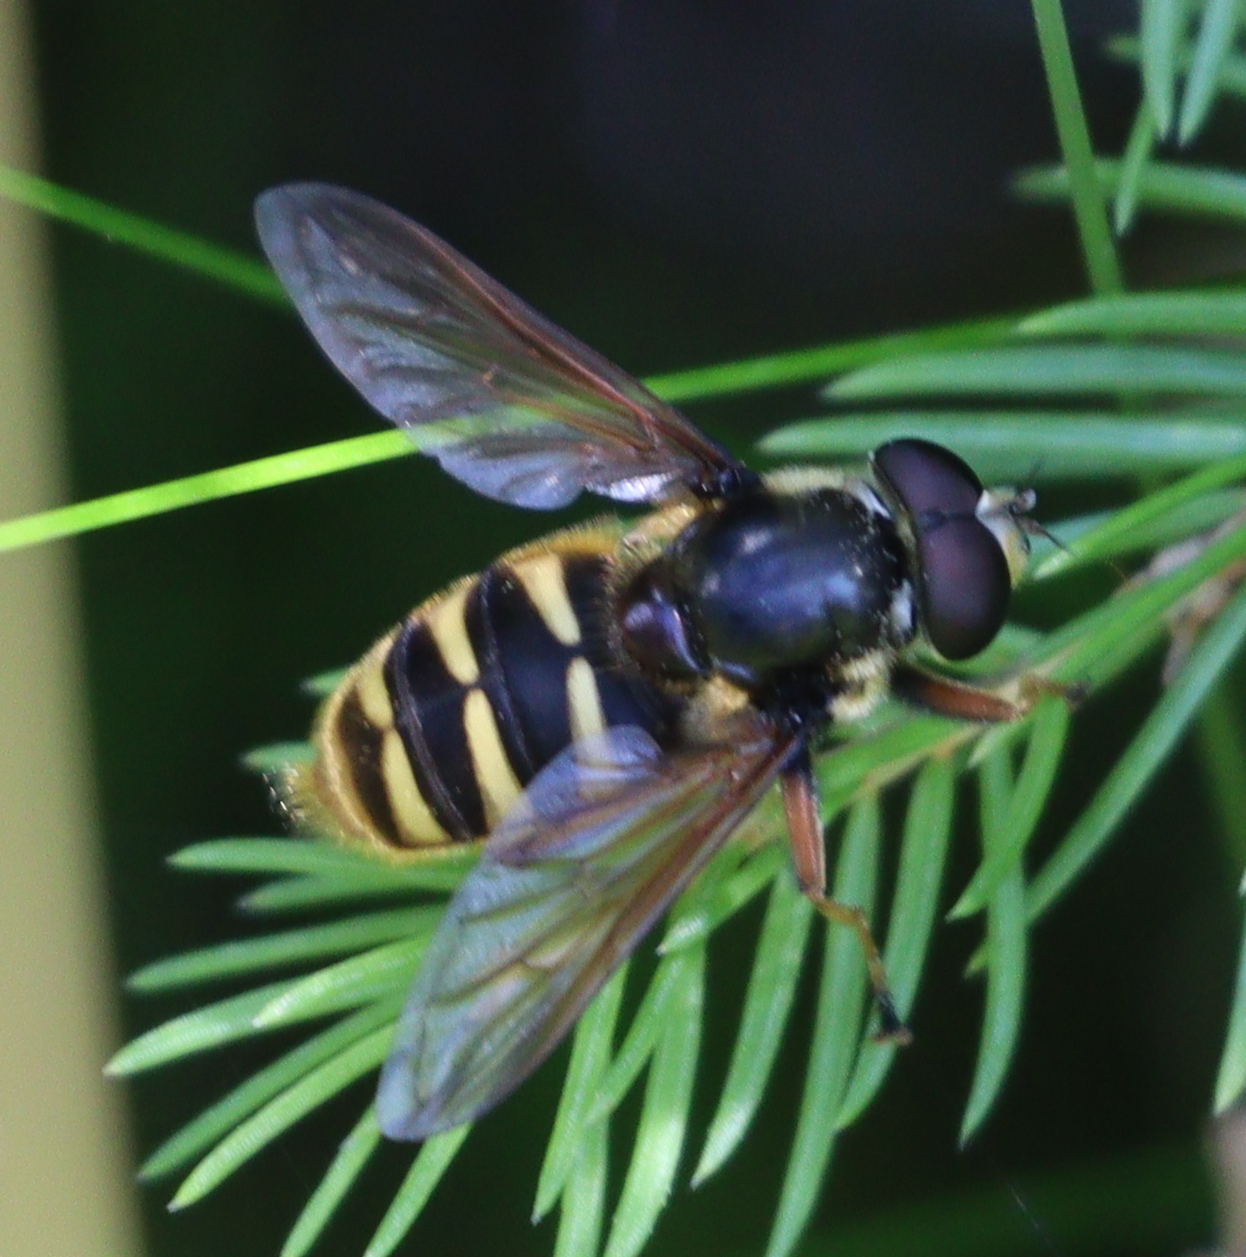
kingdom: Animalia
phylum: Arthropoda
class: Insecta
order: Diptera
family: Syrphidae
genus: Sericomyia
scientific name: Sericomyia silentis
